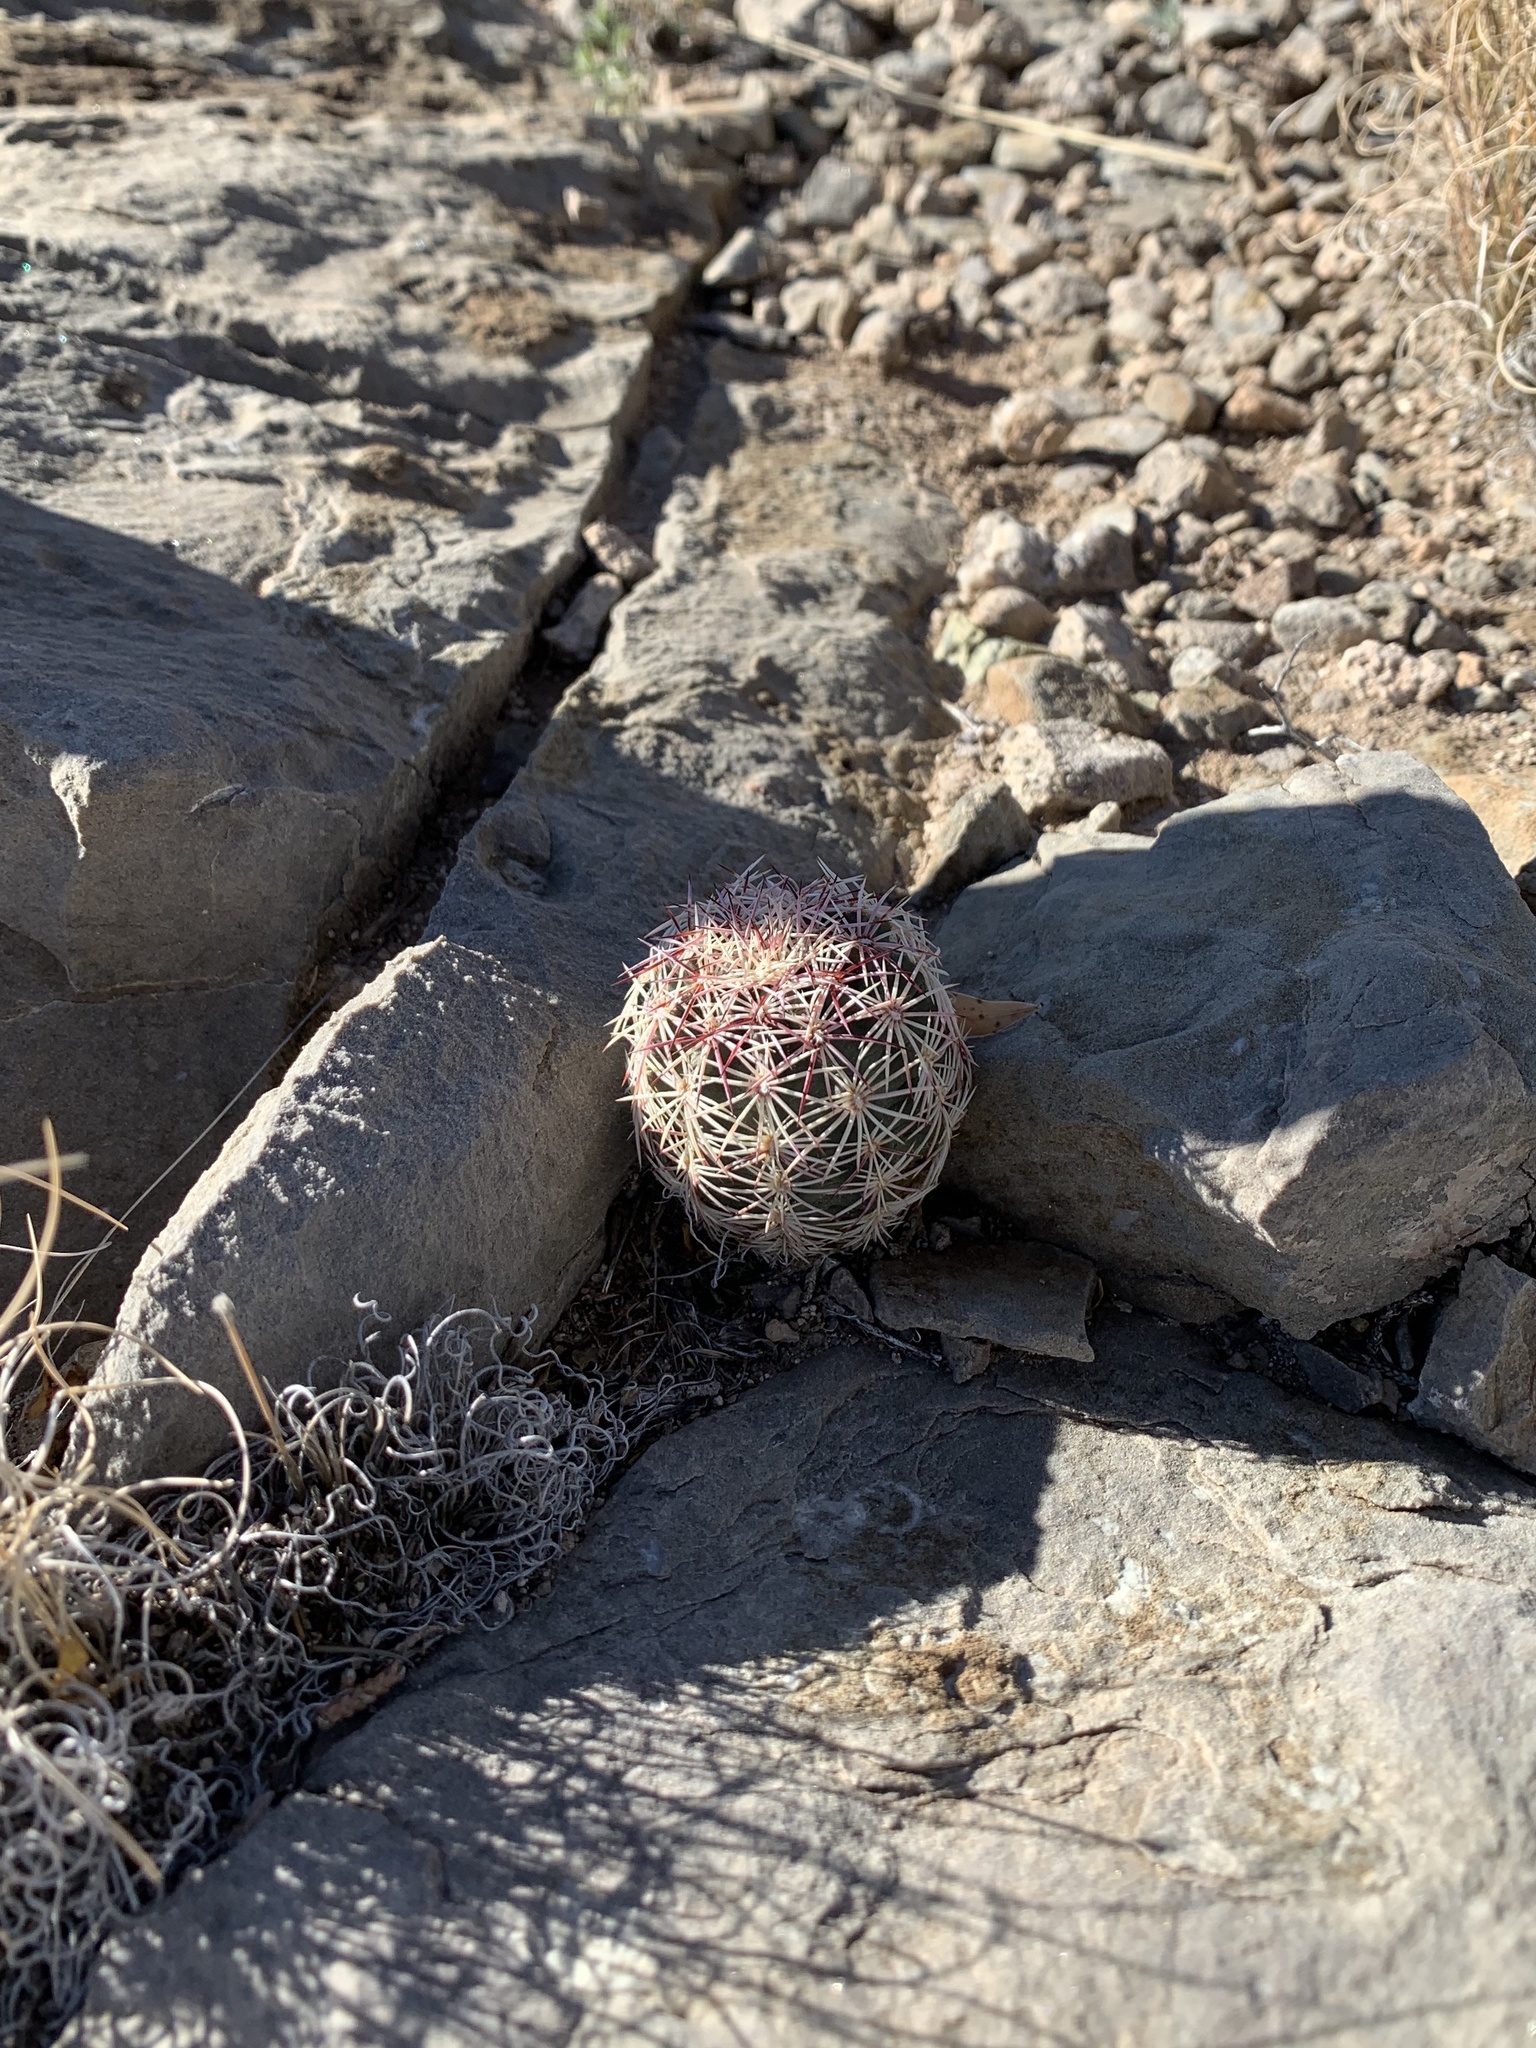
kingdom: Plantae
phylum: Tracheophyta
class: Magnoliopsida
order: Caryophyllales
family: Cactaceae
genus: Echinocereus
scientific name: Echinocereus viridiflorus
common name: Nylon hedgehog cactus
